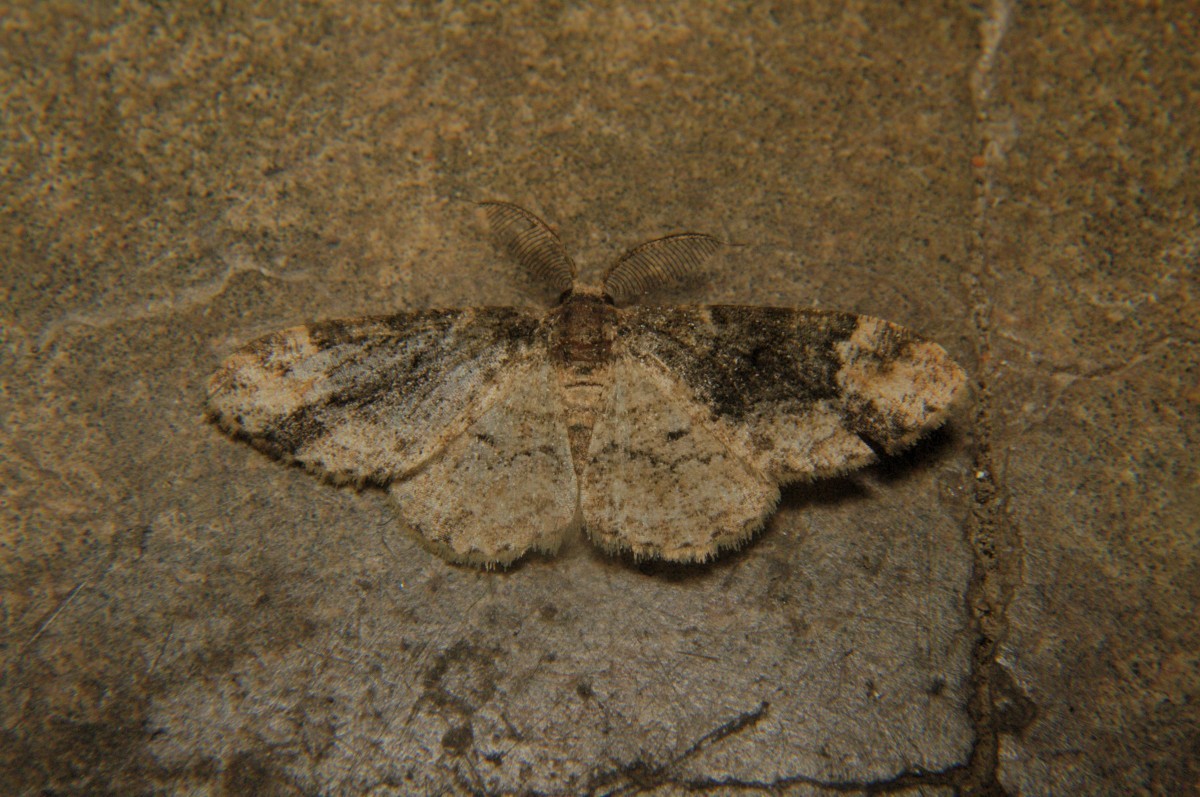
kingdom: Animalia
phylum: Arthropoda
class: Insecta
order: Lepidoptera
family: Geometridae
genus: Parapholodes
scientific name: Parapholodes
